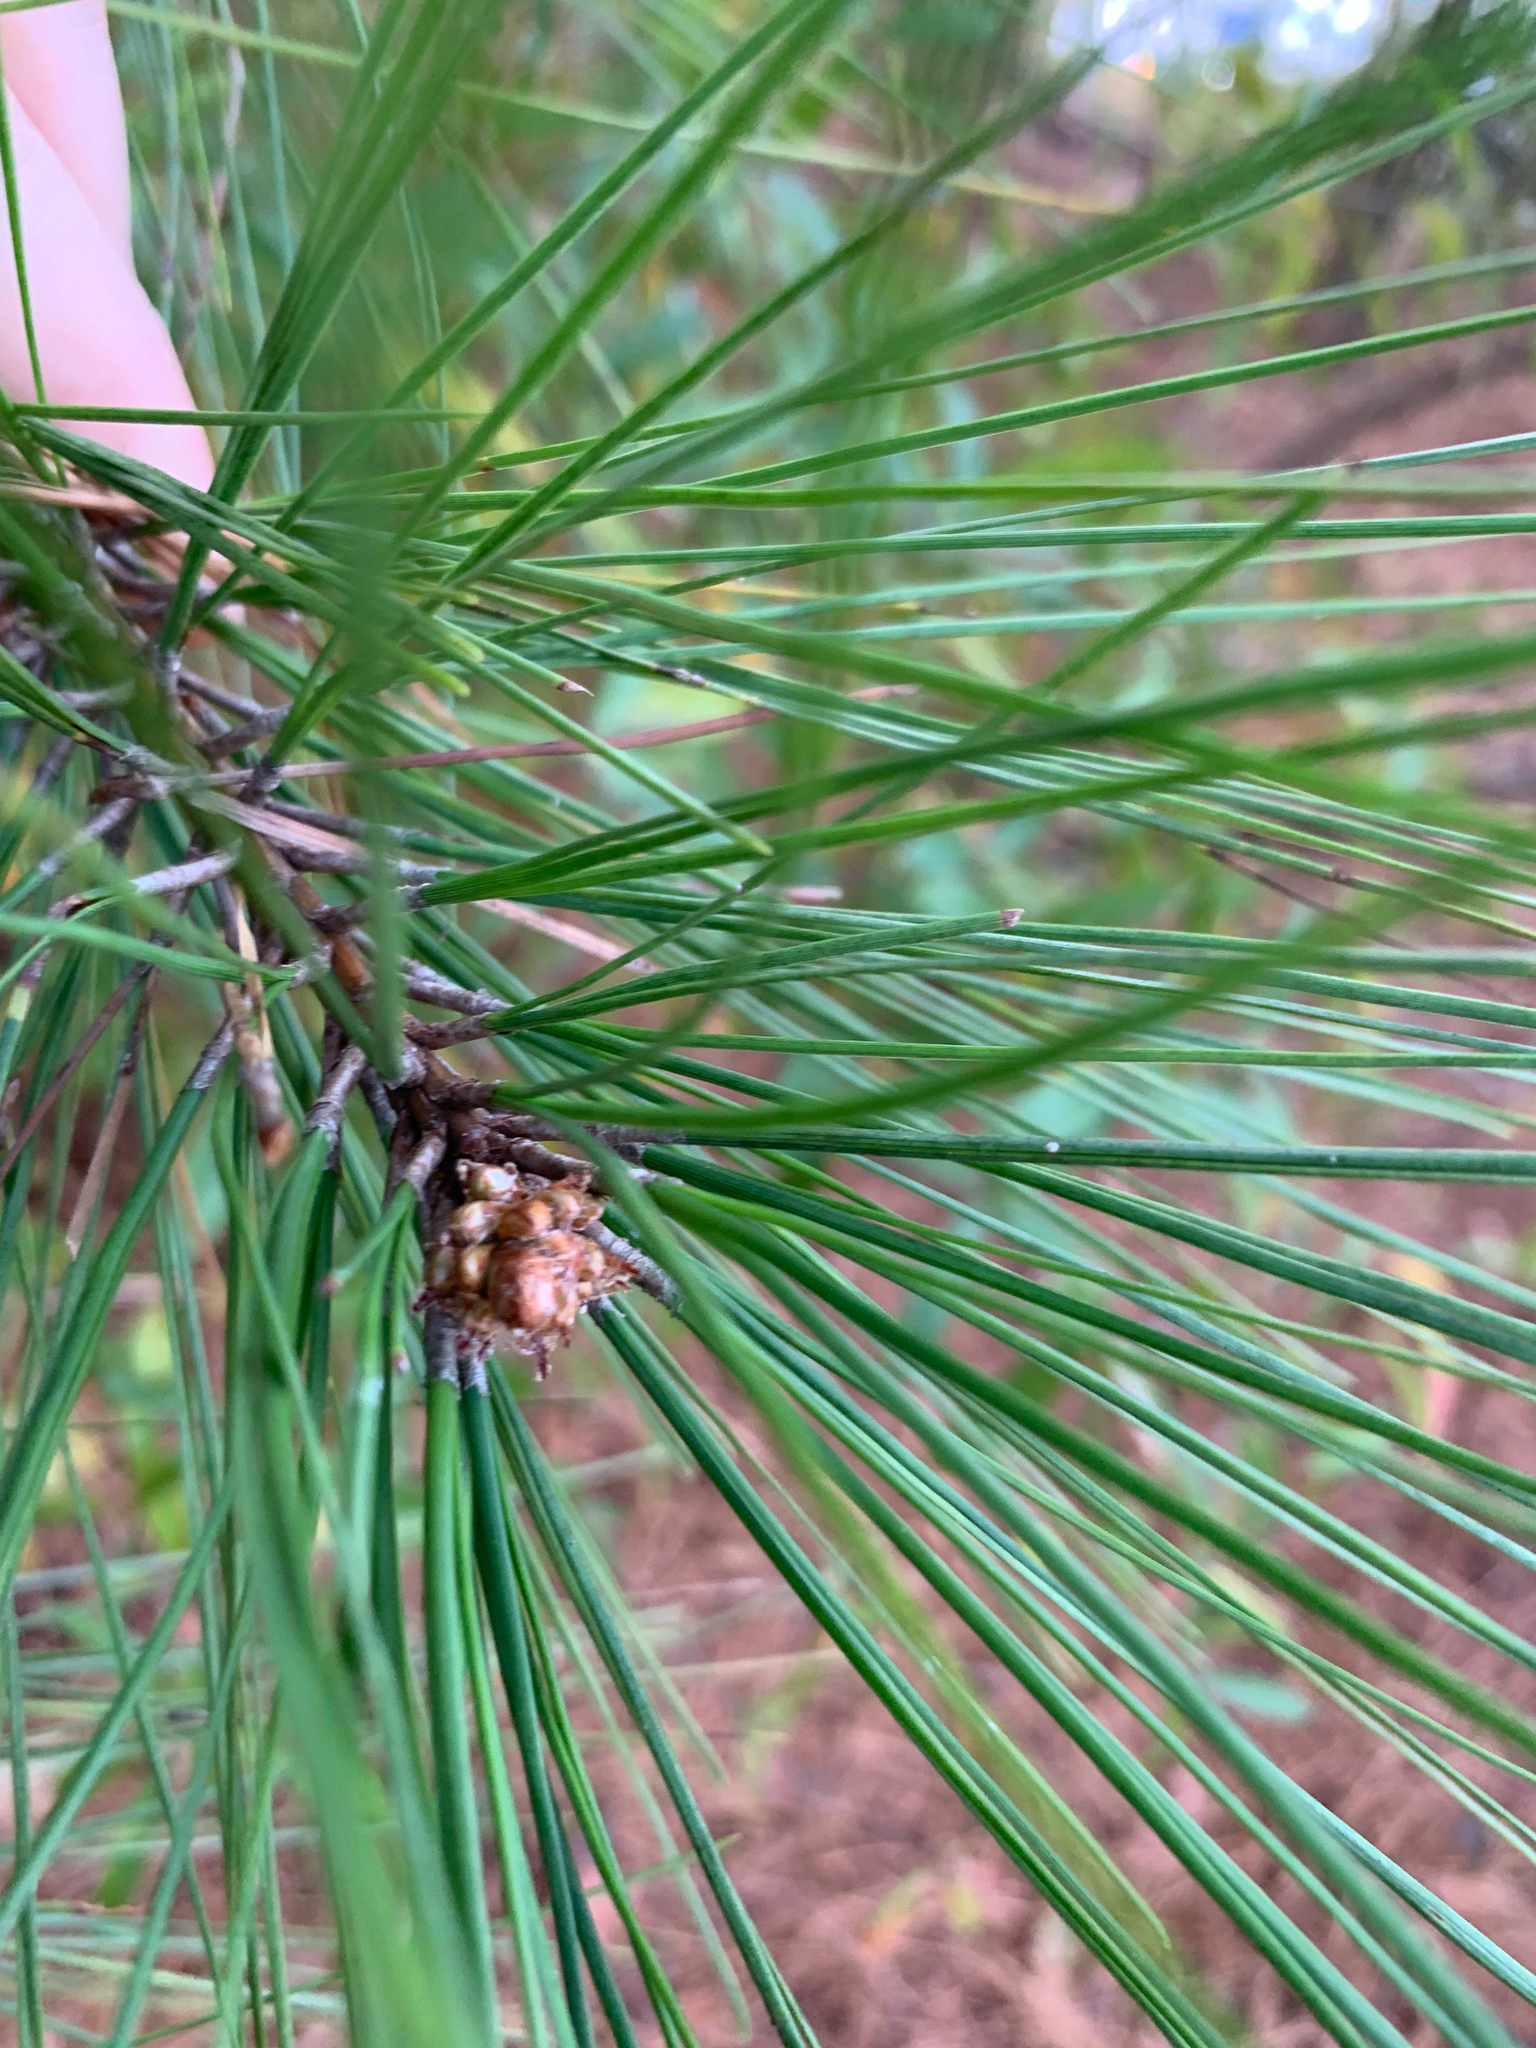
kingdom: Plantae
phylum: Tracheophyta
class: Pinopsida
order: Pinales
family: Pinaceae
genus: Pinus
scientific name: Pinus elliottii
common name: Slash pine
